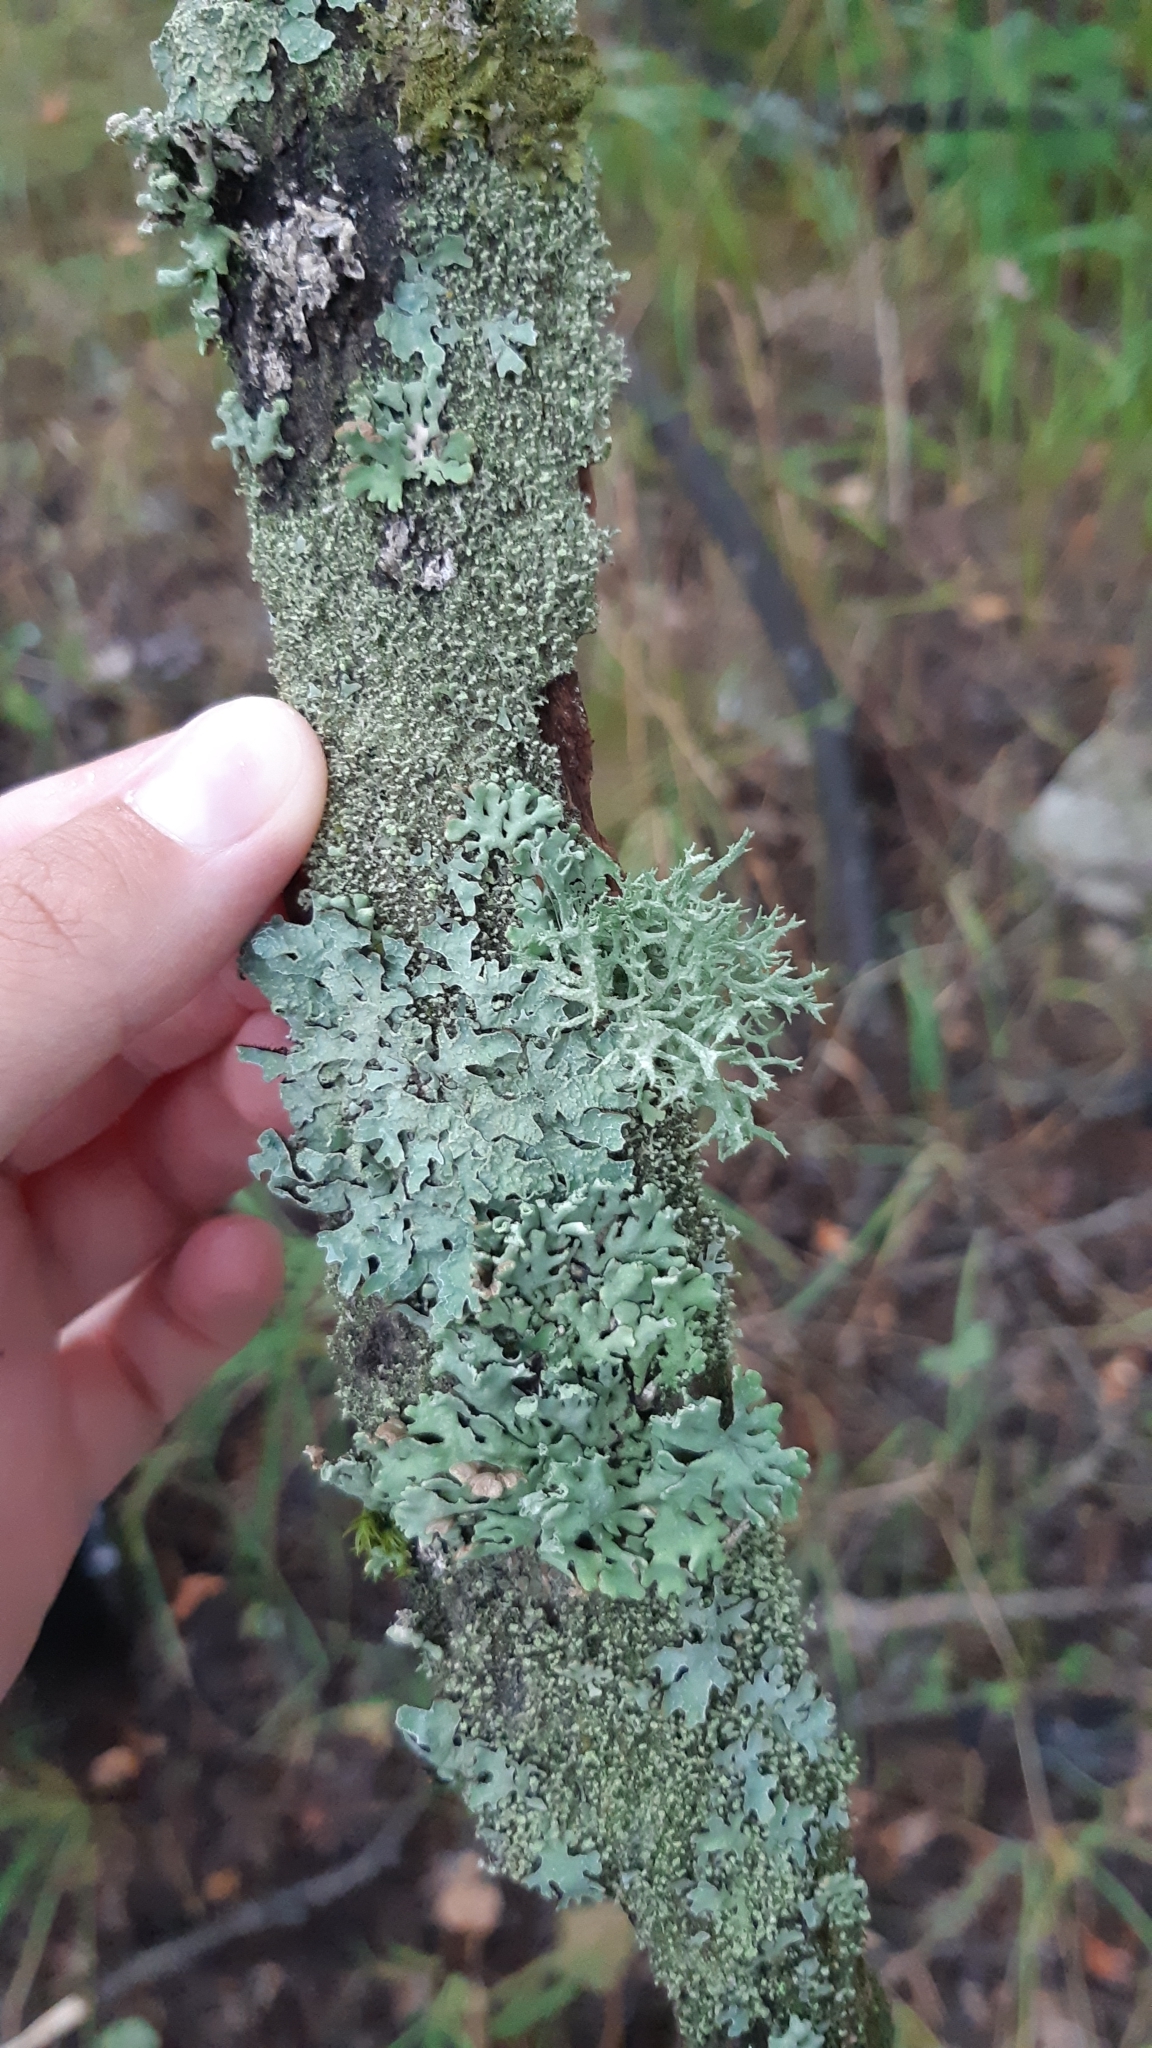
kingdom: Fungi
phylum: Ascomycota
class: Lecanoromycetes
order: Lecanorales
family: Parmeliaceae
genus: Evernia
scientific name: Evernia prunastri
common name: Oak moss
